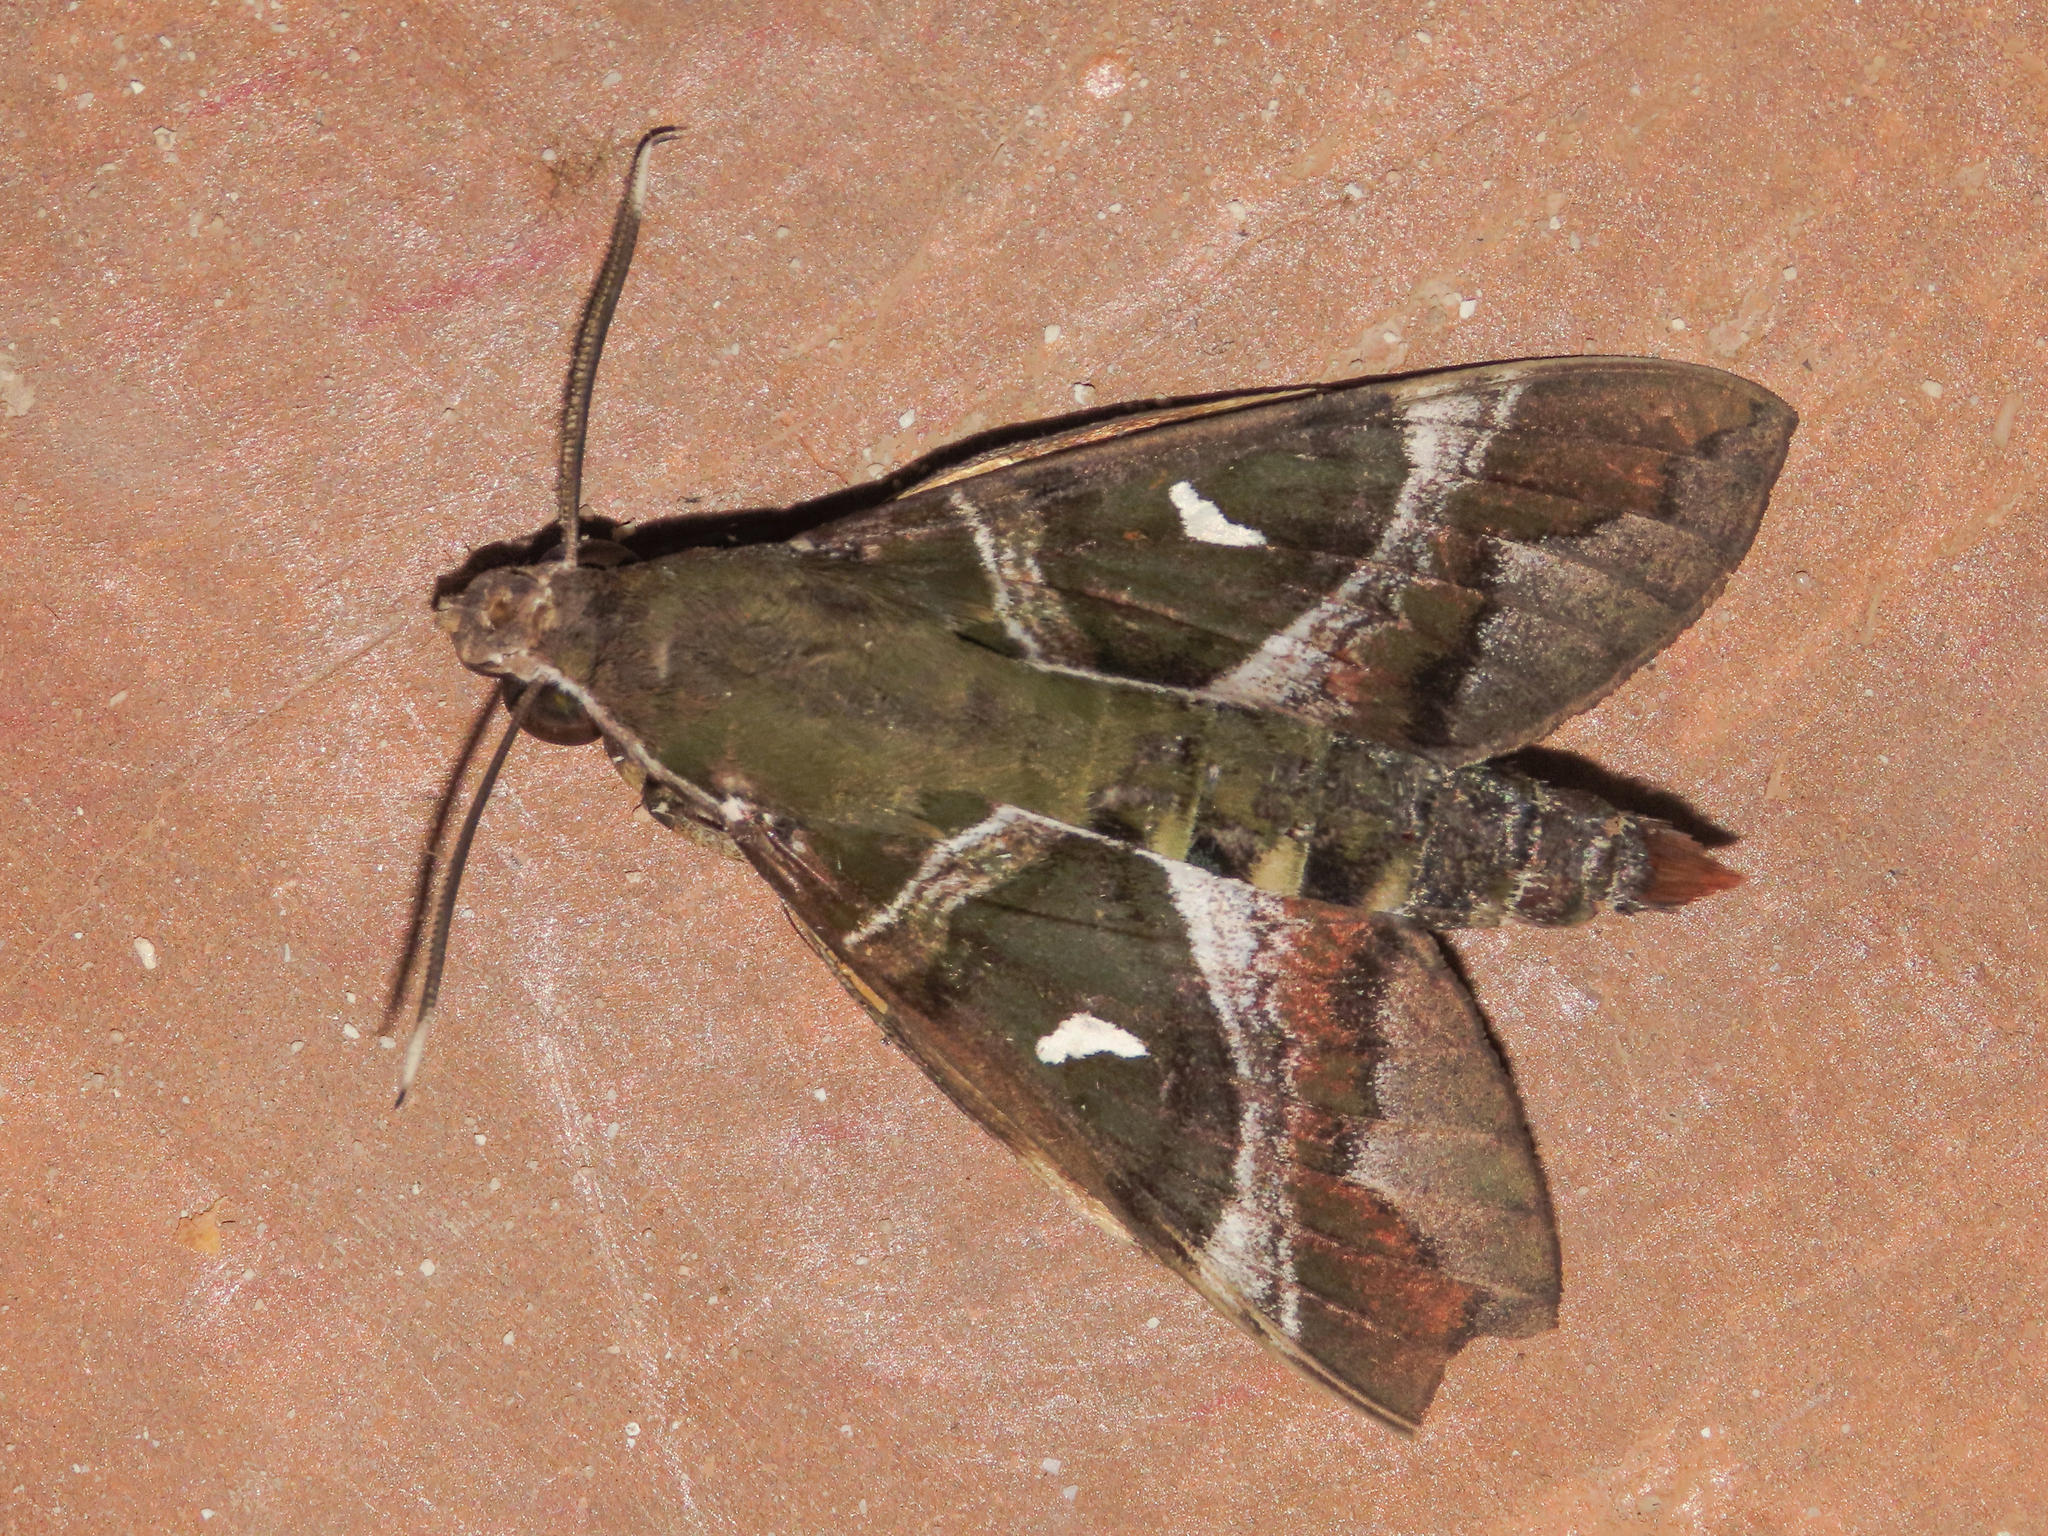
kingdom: Animalia
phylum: Arthropoda
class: Insecta
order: Lepidoptera
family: Sphingidae
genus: Nephele
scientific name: Nephele argentifera
